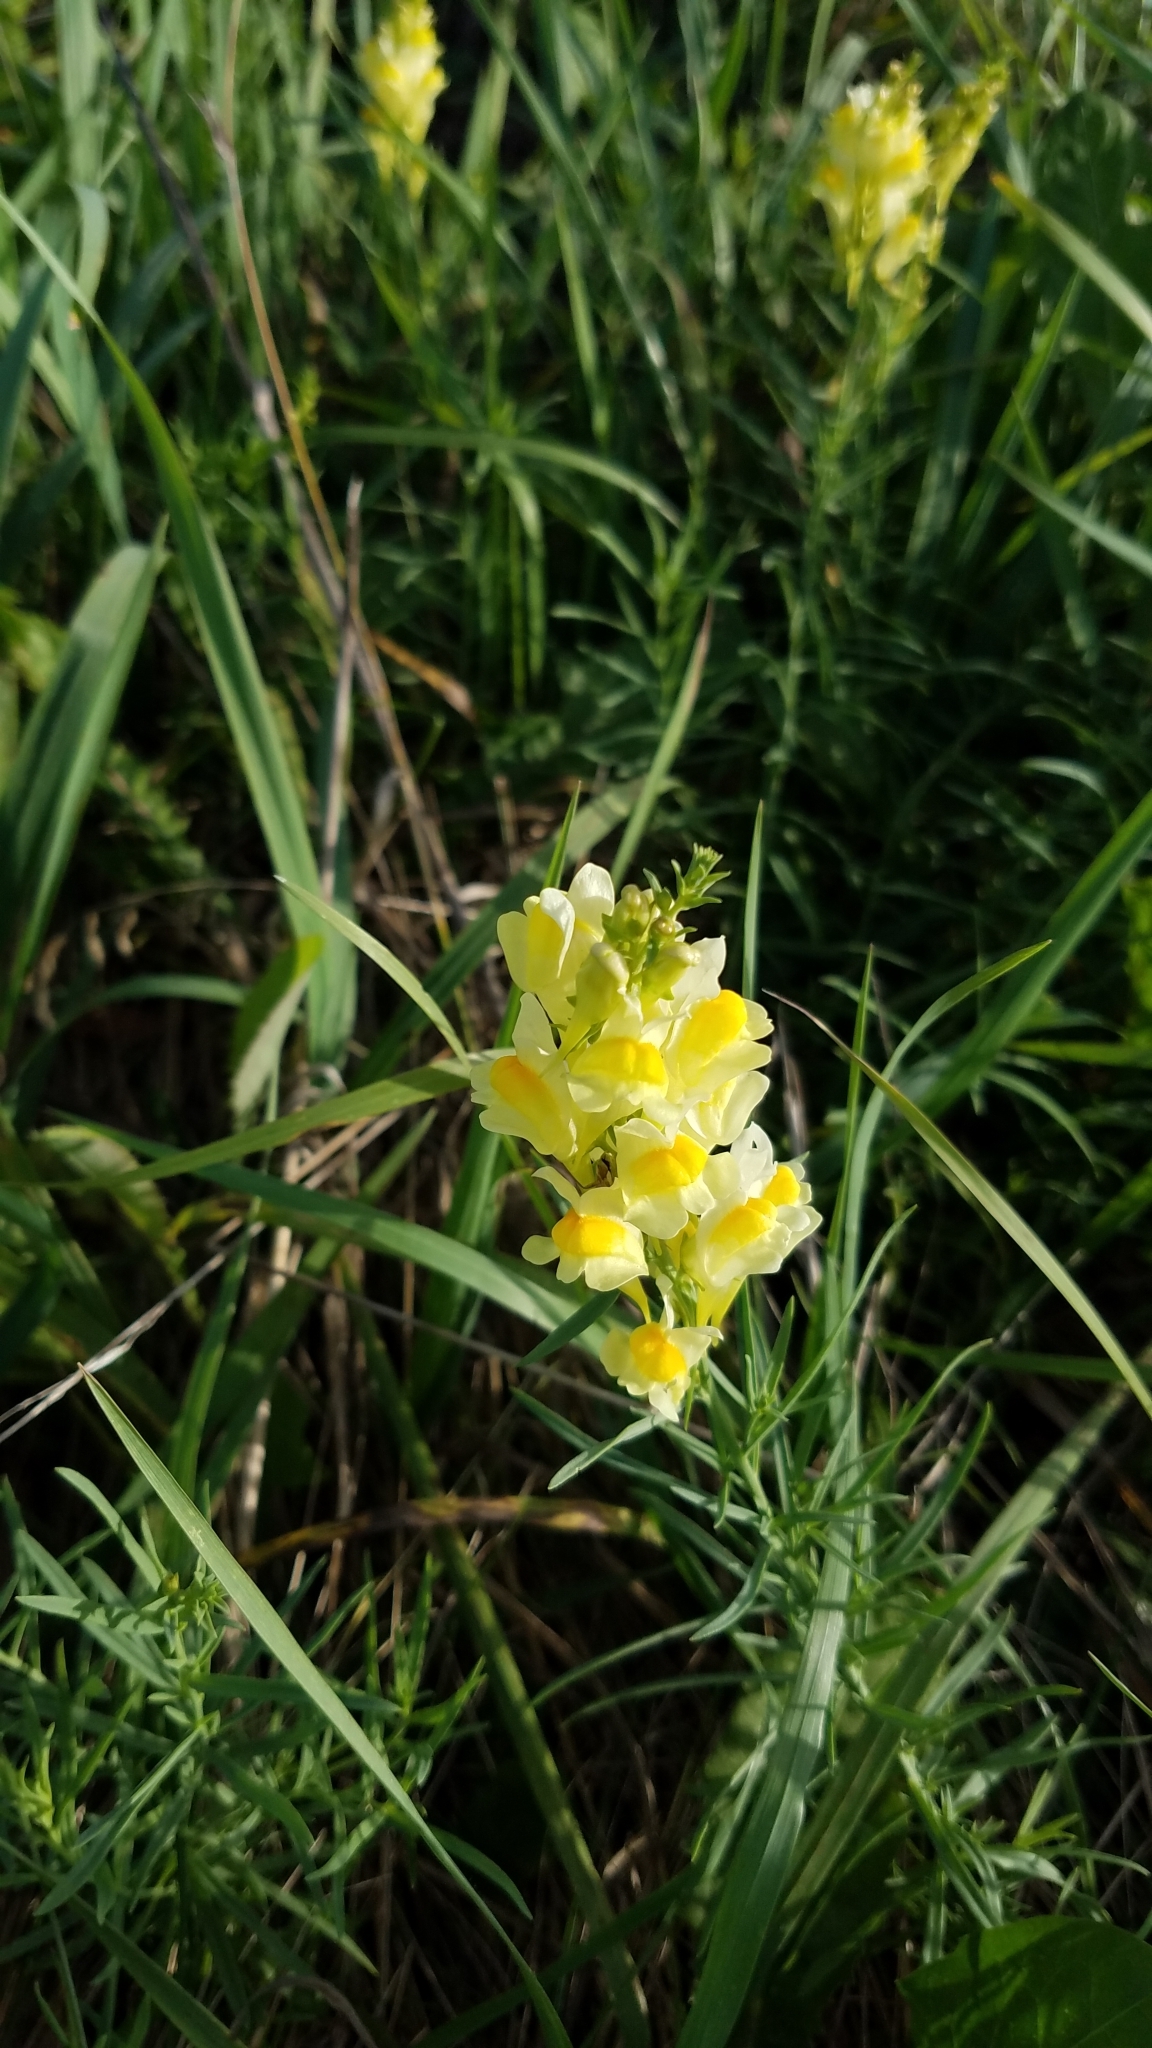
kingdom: Plantae
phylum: Tracheophyta
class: Magnoliopsida
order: Lamiales
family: Plantaginaceae
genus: Linaria
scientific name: Linaria vulgaris
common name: Butter and eggs
